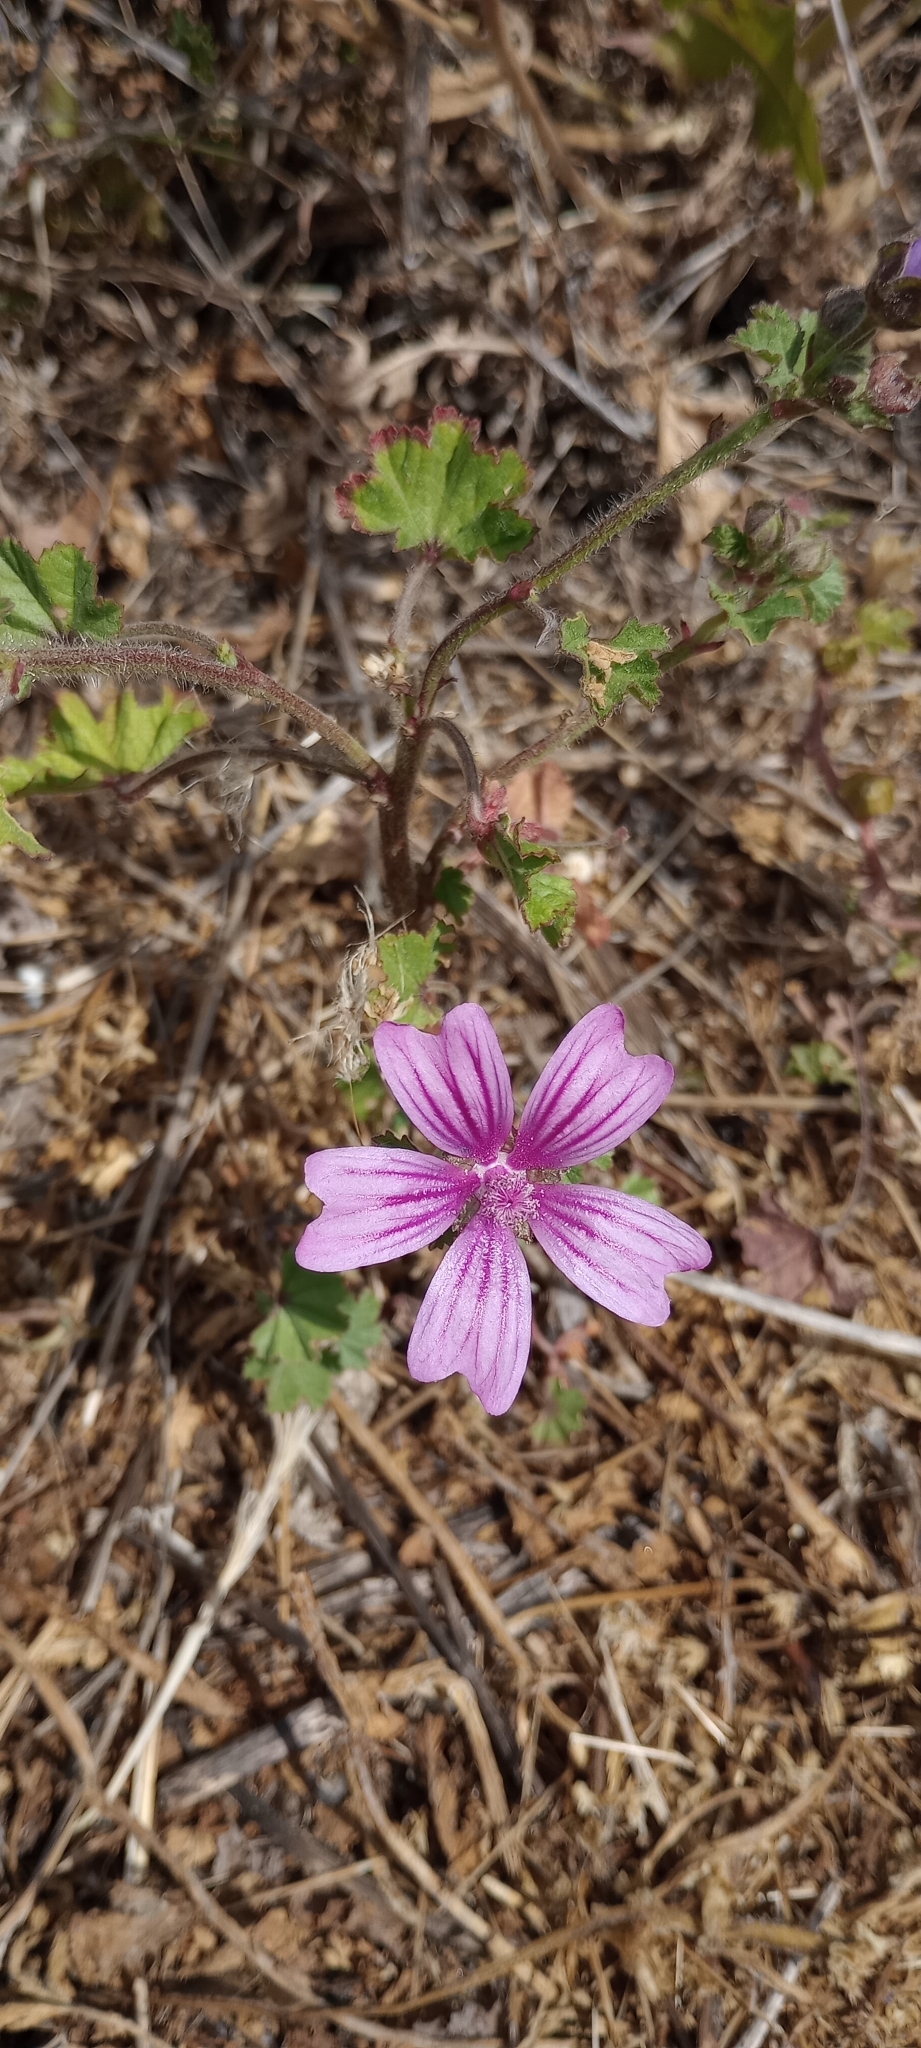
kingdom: Plantae
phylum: Tracheophyta
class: Magnoliopsida
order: Malvales
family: Malvaceae
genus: Malva
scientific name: Malva sylvestris
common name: Common mallow
